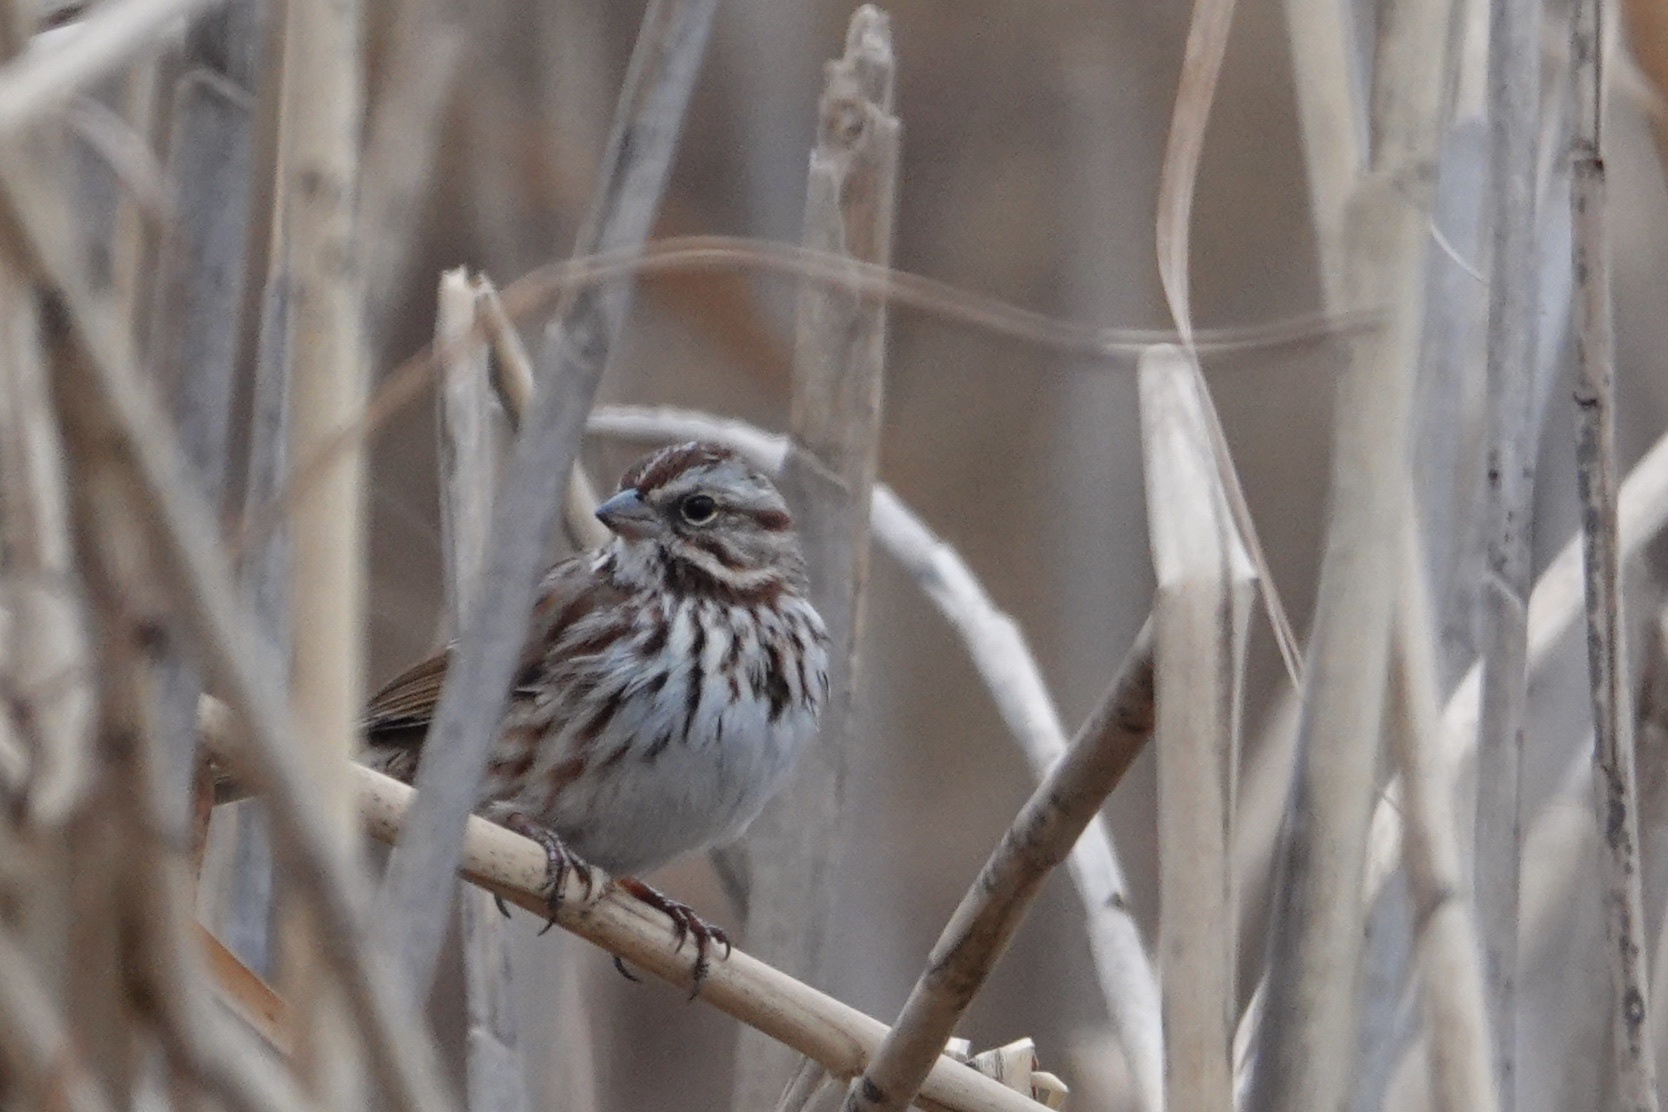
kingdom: Animalia
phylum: Chordata
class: Aves
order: Passeriformes
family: Passerellidae
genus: Melospiza
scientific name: Melospiza melodia
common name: Song sparrow
